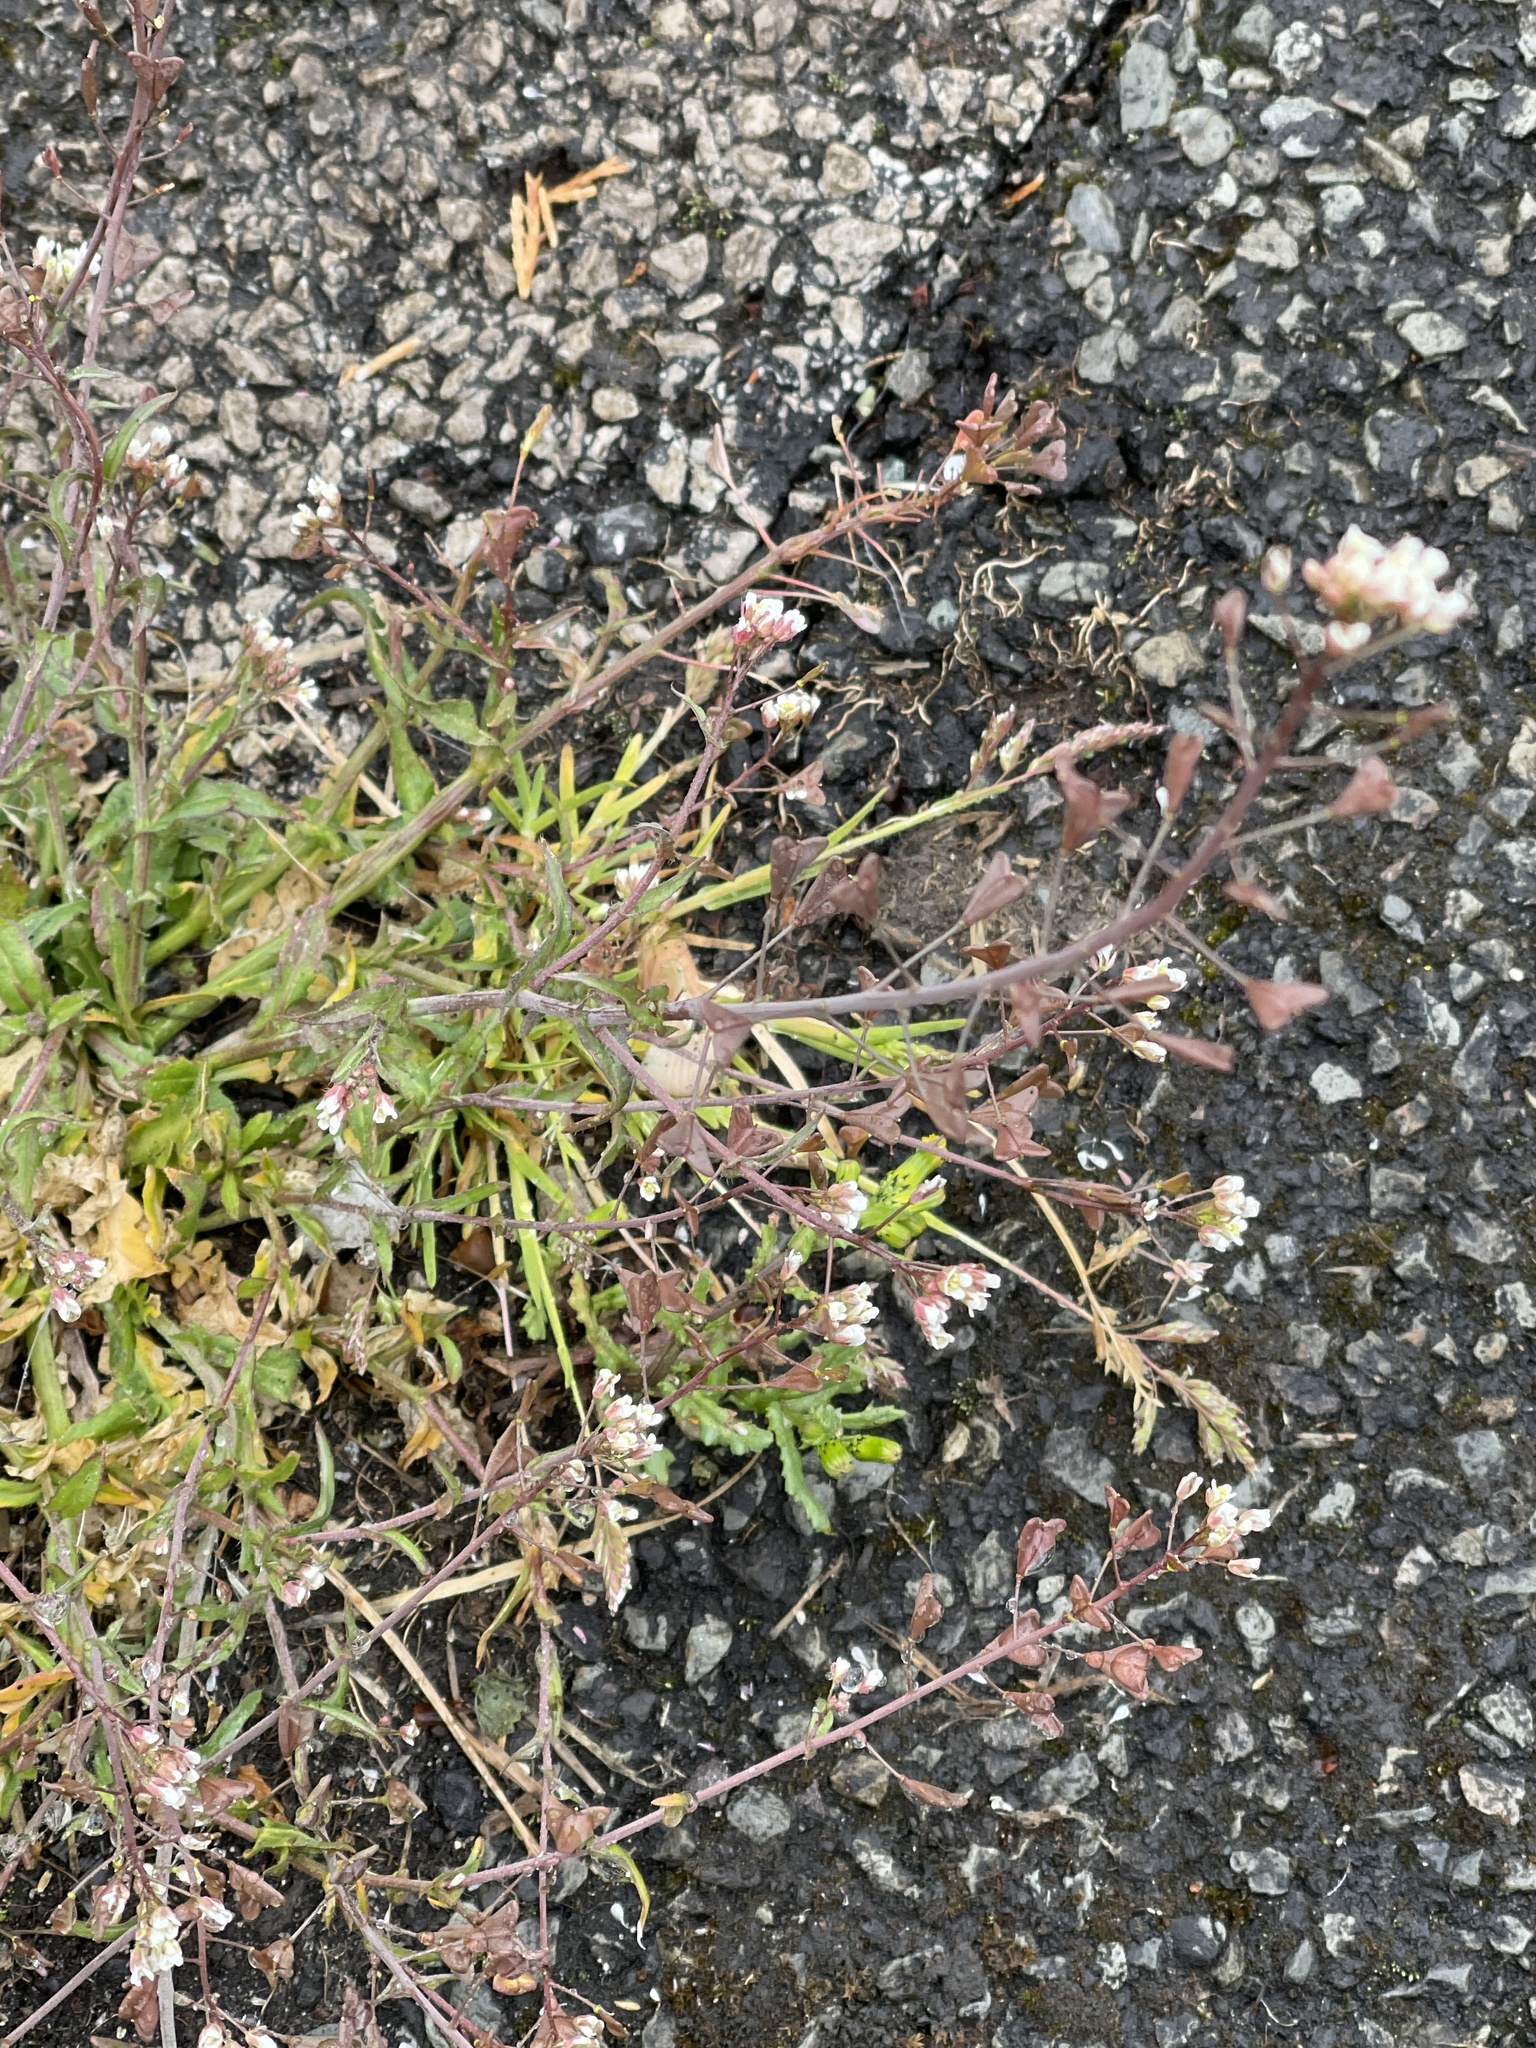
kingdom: Plantae
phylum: Tracheophyta
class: Magnoliopsida
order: Brassicales
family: Brassicaceae
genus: Capsella
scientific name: Capsella bursa-pastoris
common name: Shepherd's purse
